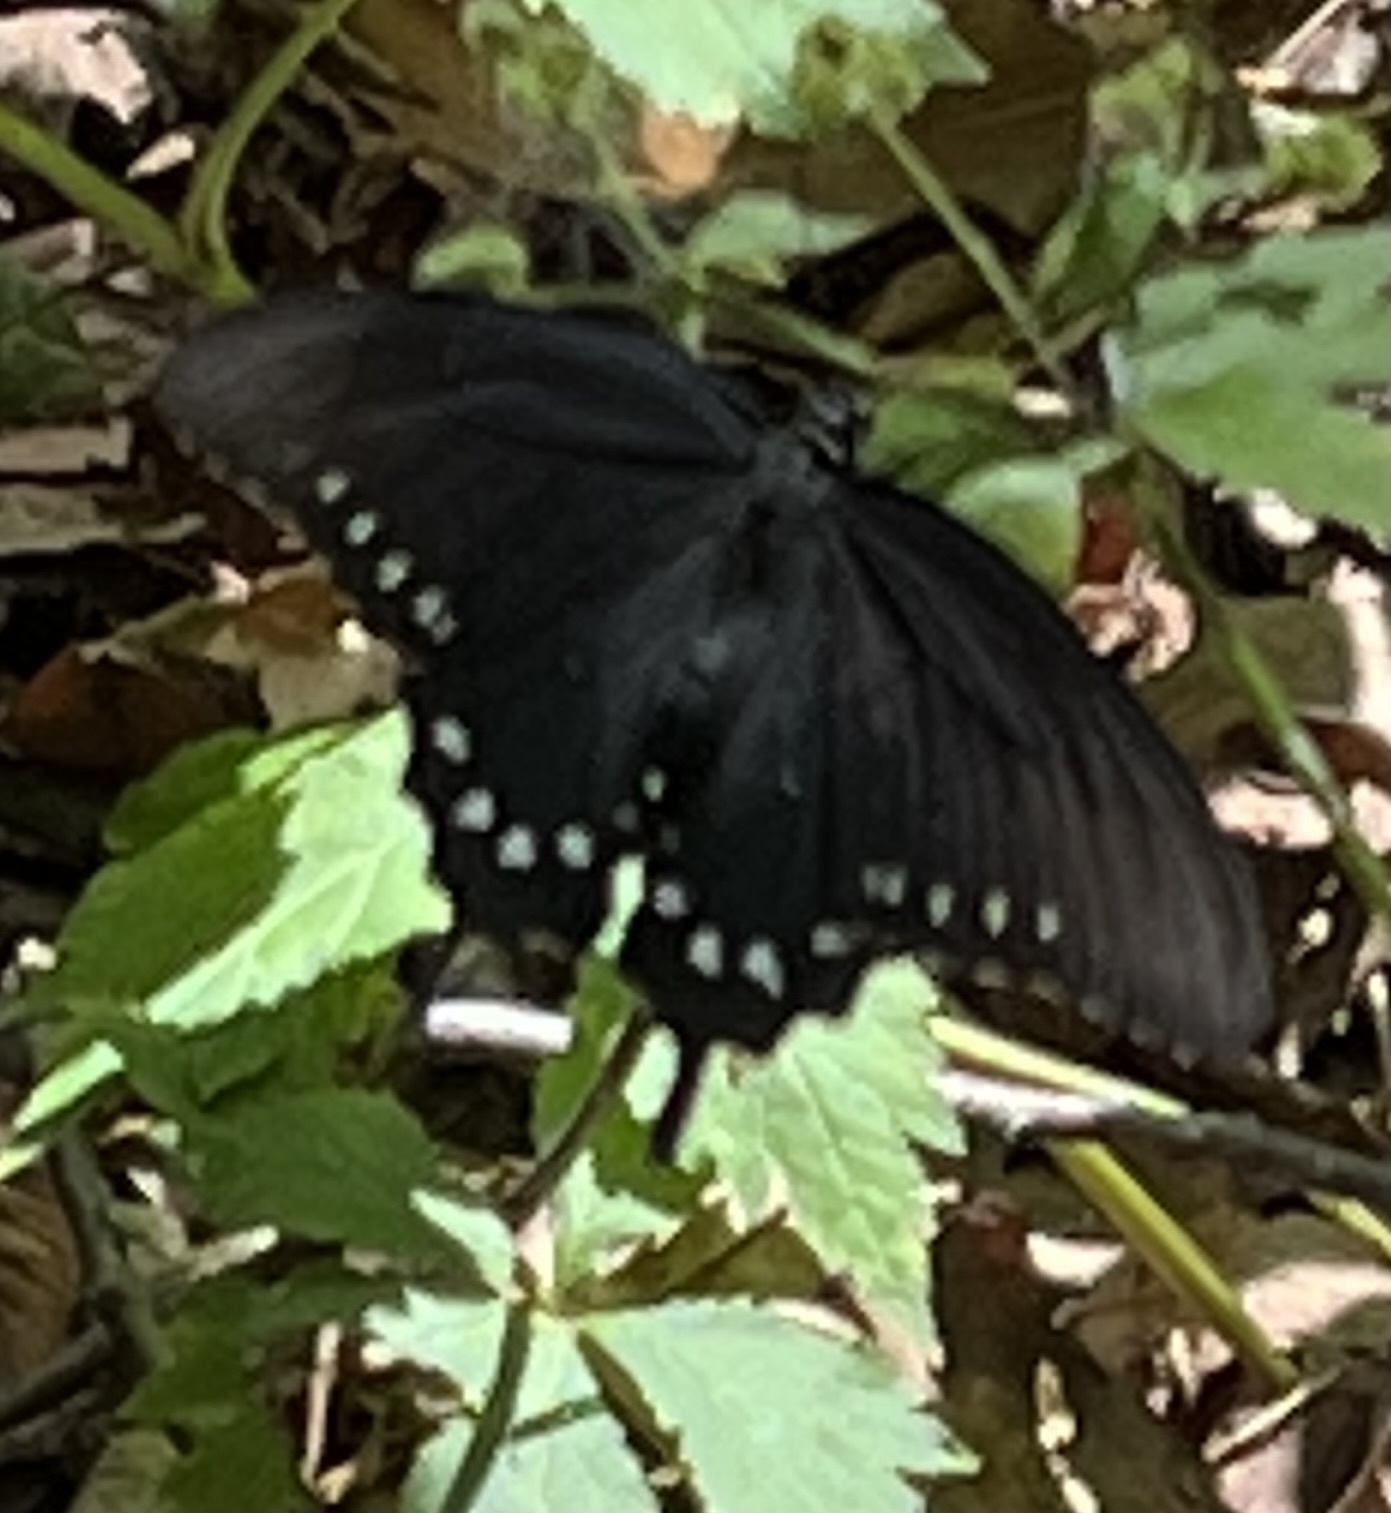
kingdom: Animalia
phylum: Arthropoda
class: Insecta
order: Lepidoptera
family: Papilionidae
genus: Battus
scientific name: Battus philenor
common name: Pipevine swallowtail
